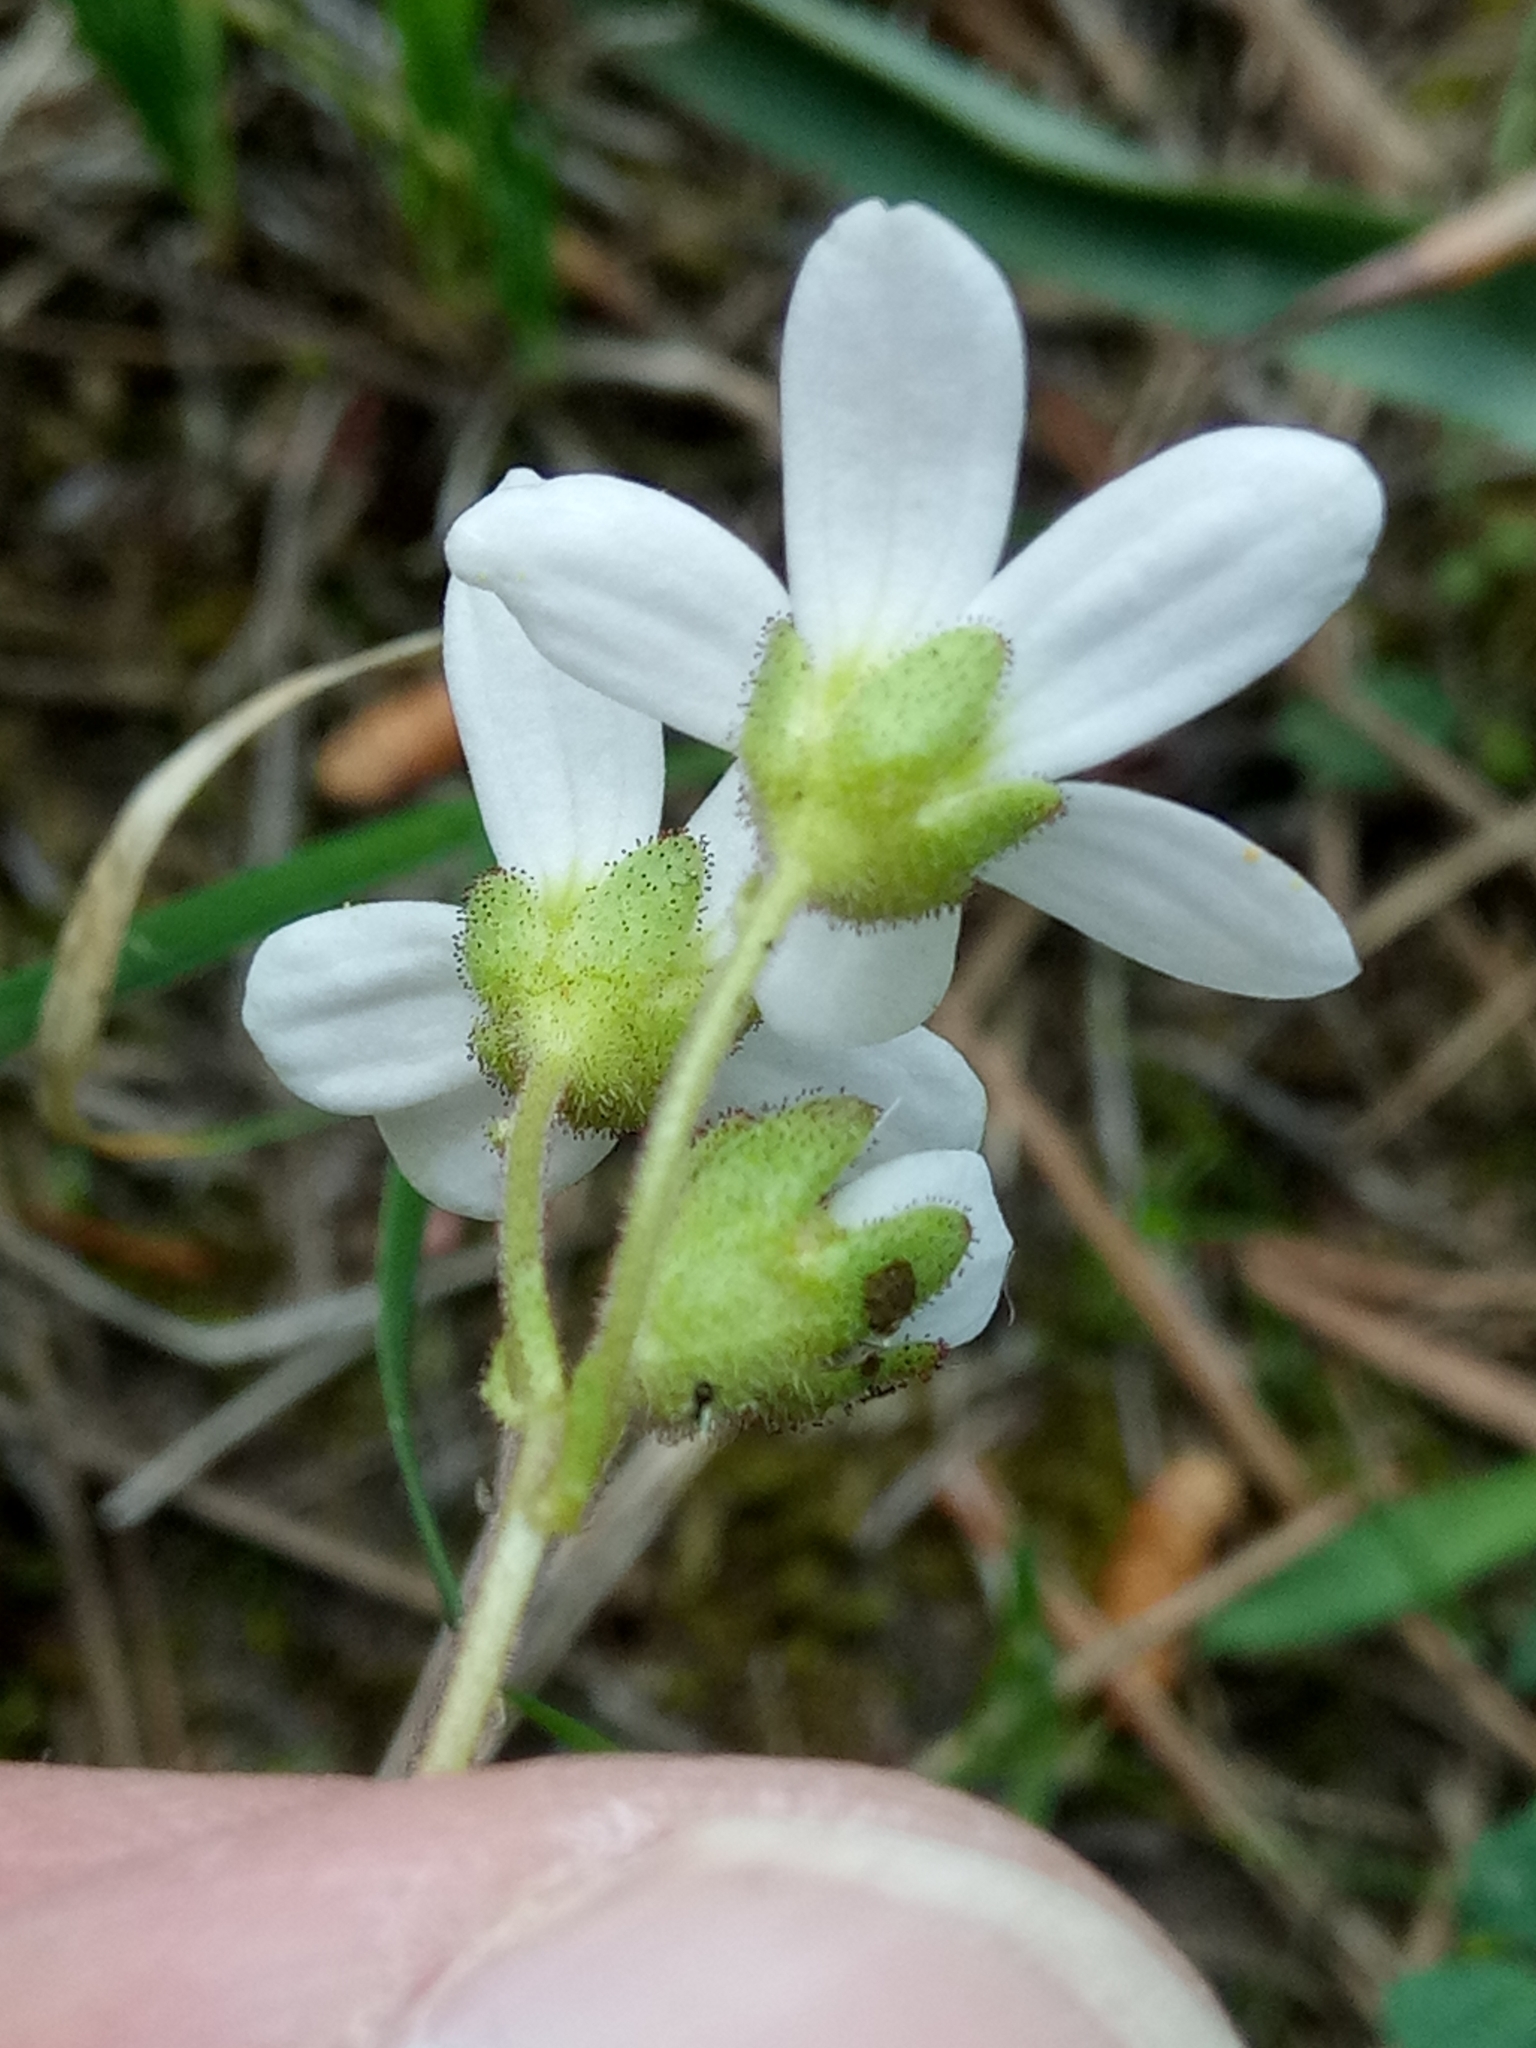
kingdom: Plantae
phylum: Tracheophyta
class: Magnoliopsida
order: Saxifragales
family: Saxifragaceae
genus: Saxifraga
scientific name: Saxifraga carpetana
